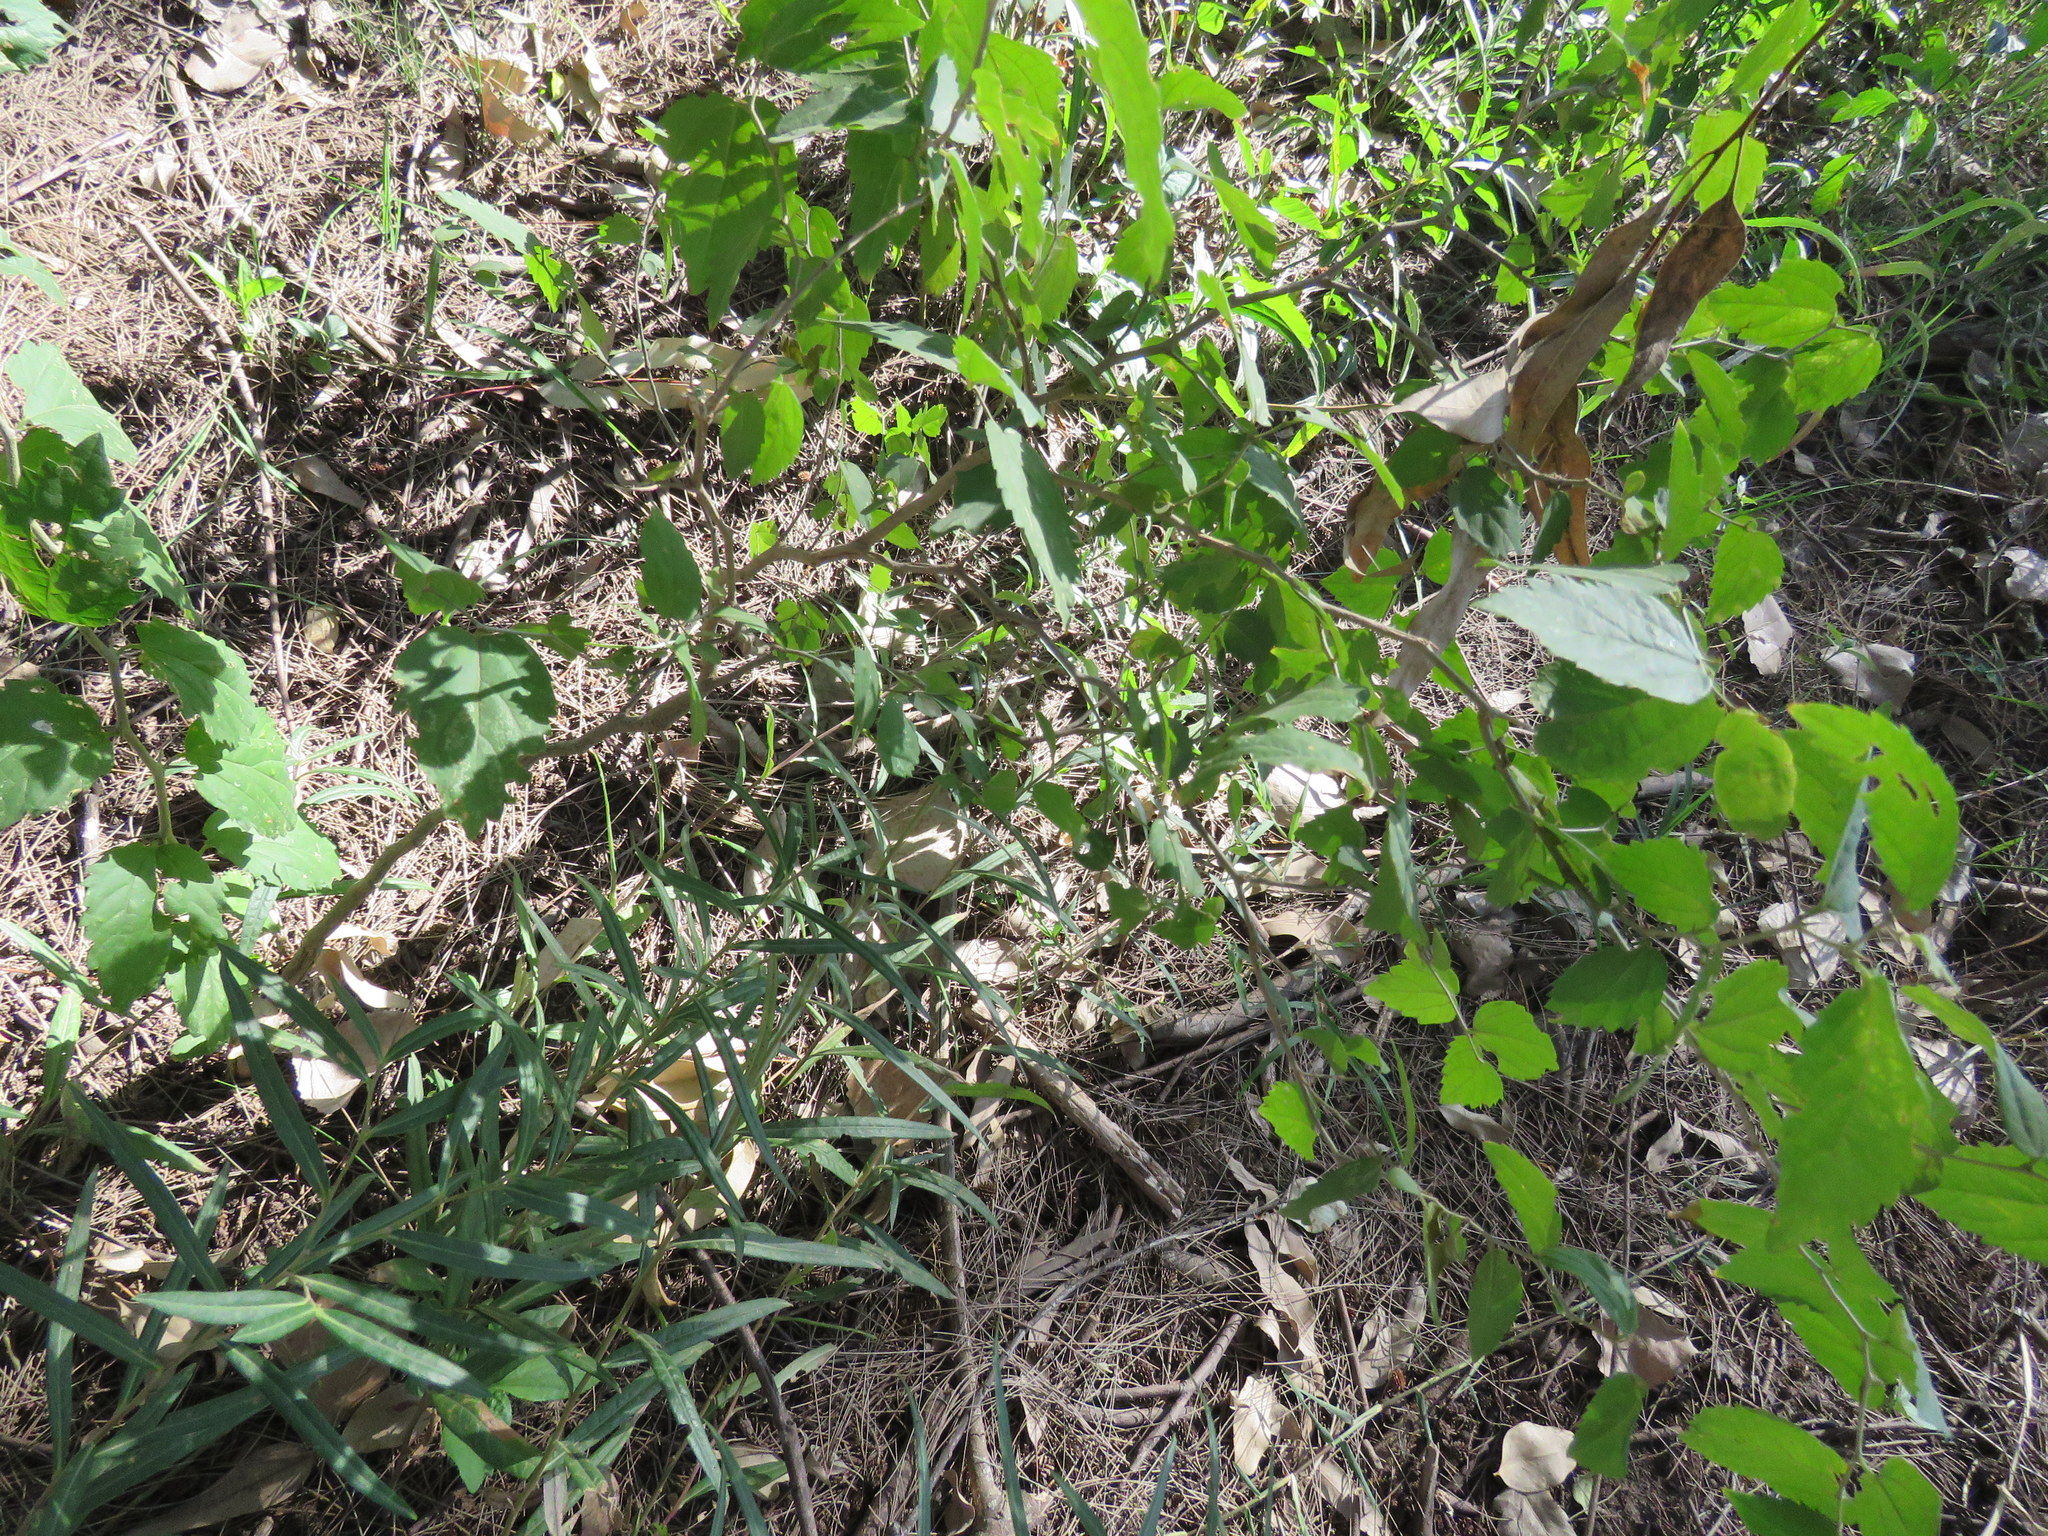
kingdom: Plantae
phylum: Tracheophyta
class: Magnoliopsida
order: Rosales
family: Cannabaceae
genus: Celtis
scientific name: Celtis tala
